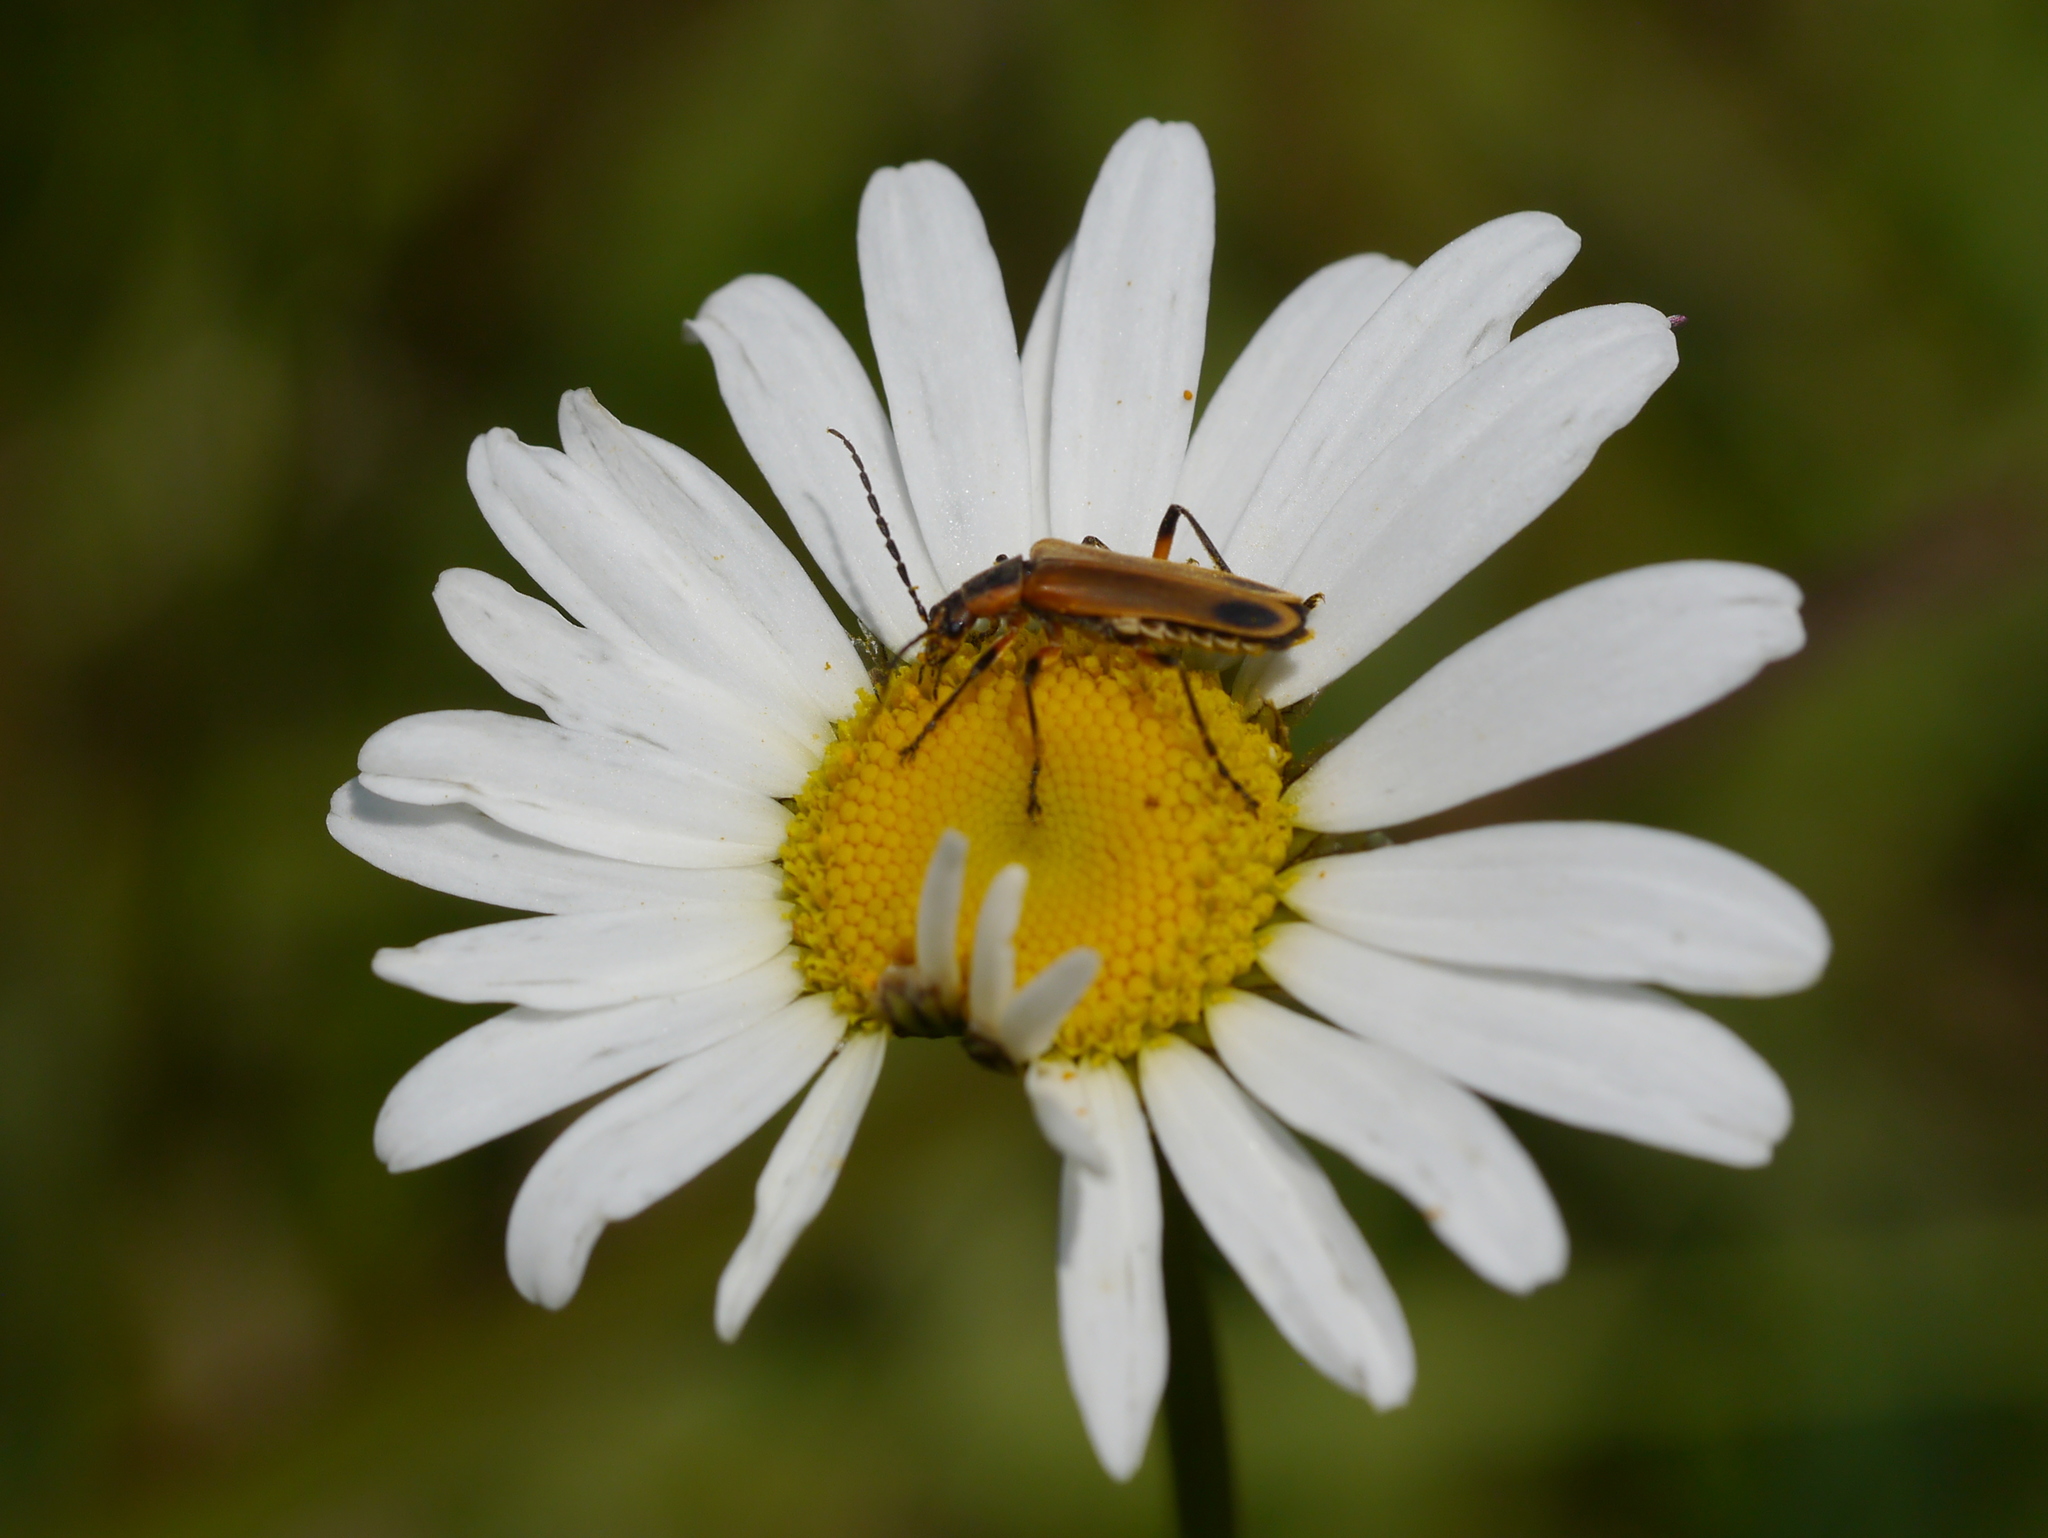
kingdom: Animalia
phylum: Arthropoda
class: Insecta
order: Coleoptera
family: Cantharidae
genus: Chauliognathus
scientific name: Chauliognathus marginatus
